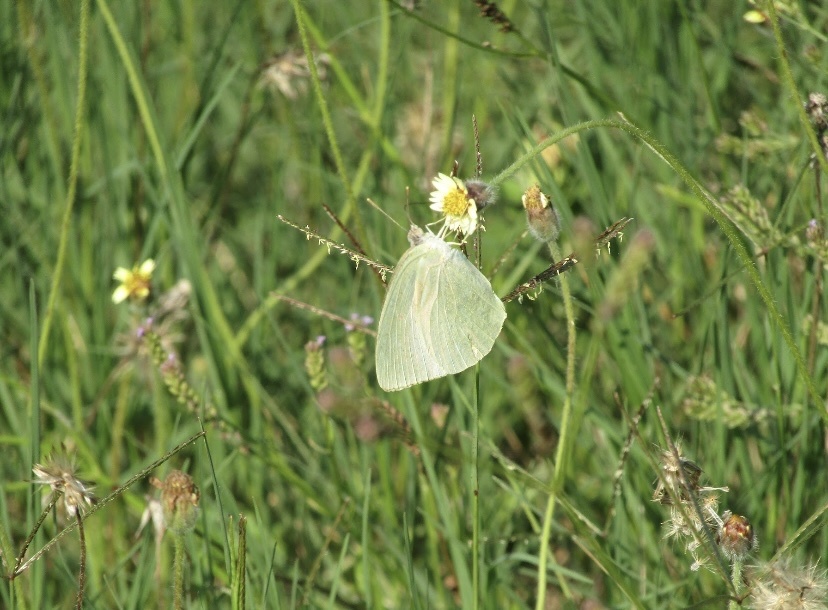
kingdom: Animalia
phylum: Arthropoda
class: Insecta
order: Lepidoptera
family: Pieridae
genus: Catopsilia
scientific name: Catopsilia florella
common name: African migrant
